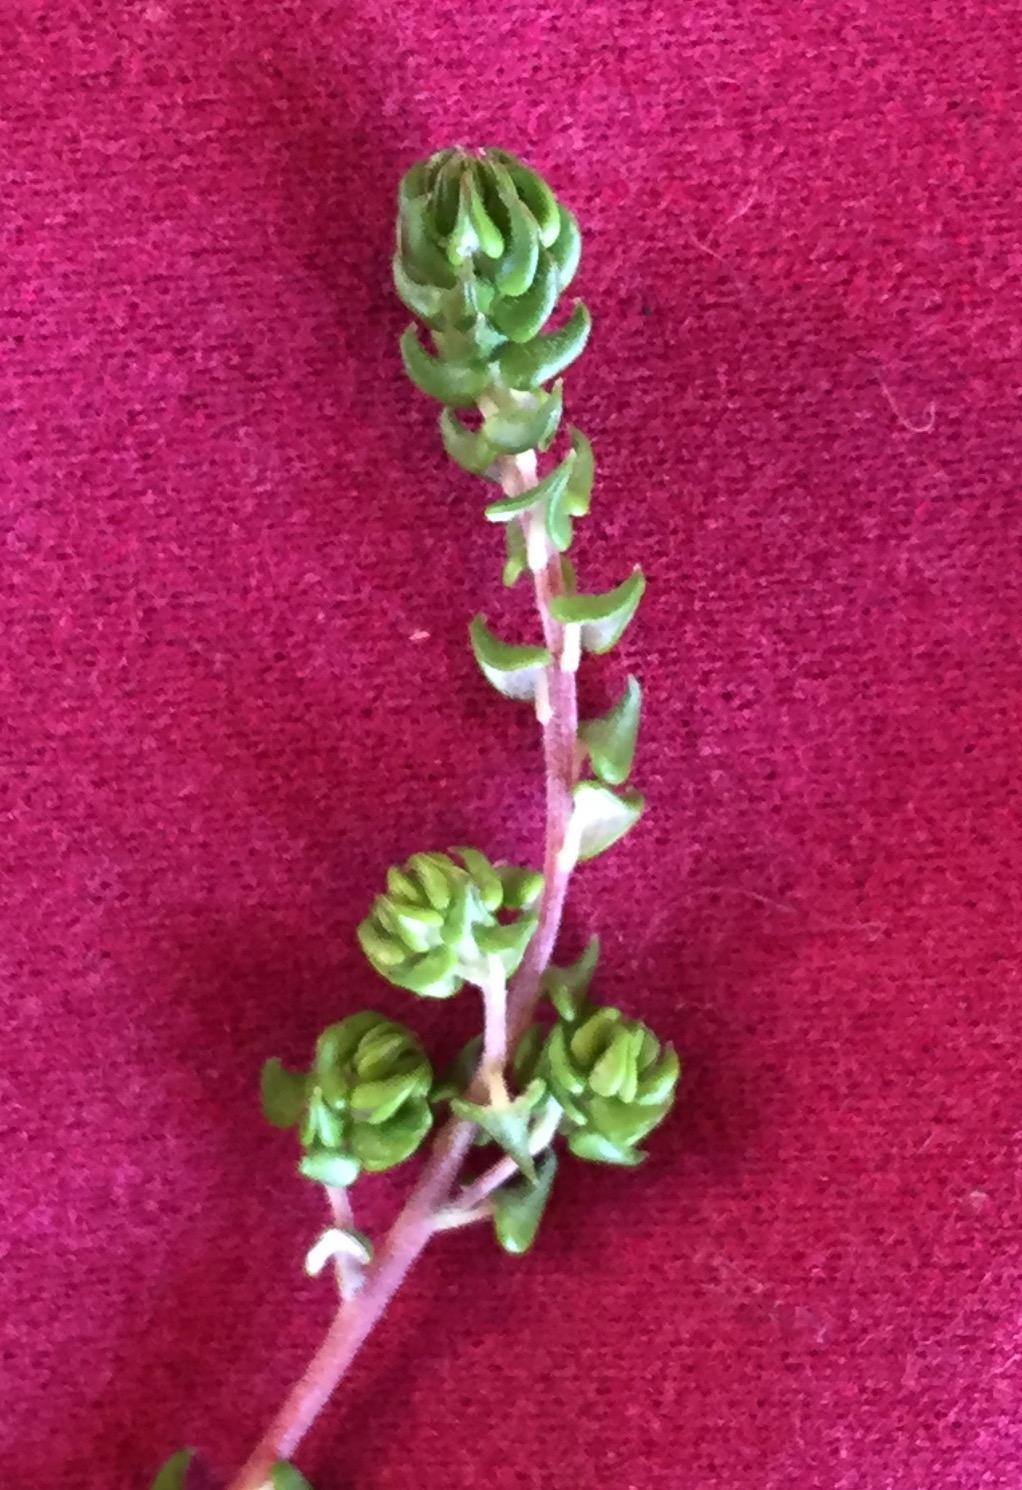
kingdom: Plantae
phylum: Tracheophyta
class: Magnoliopsida
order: Rosales
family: Rhamnaceae
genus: Phylica
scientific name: Phylica debilis
